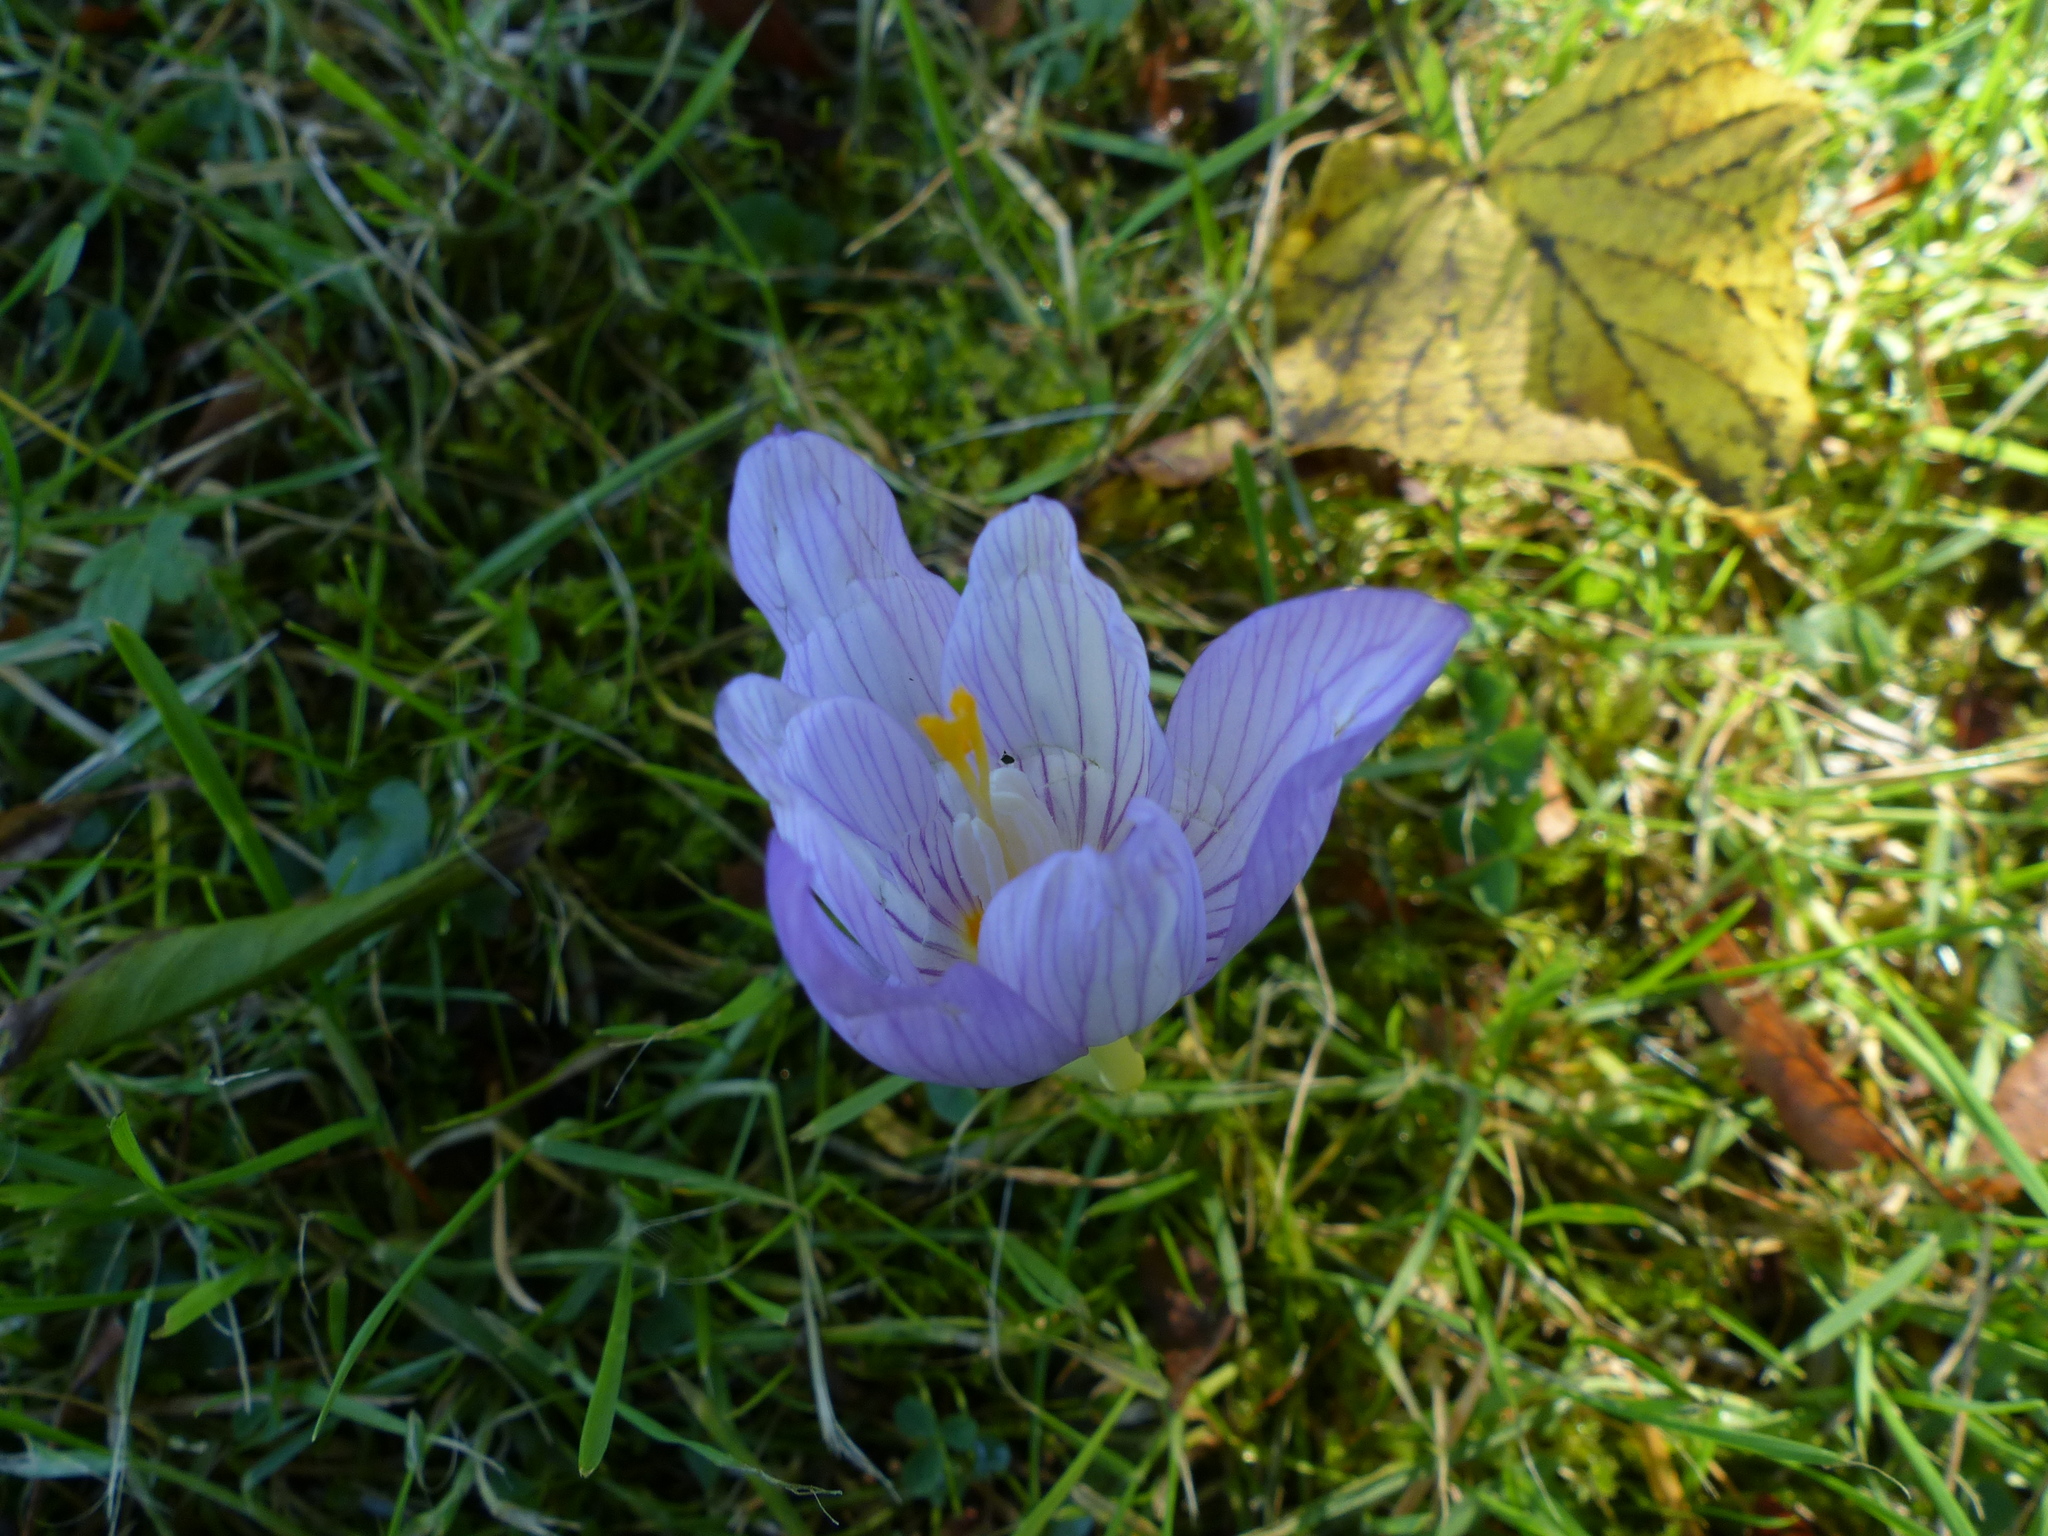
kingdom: Plantae
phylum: Tracheophyta
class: Liliopsida
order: Asparagales
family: Iridaceae
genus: Crocus
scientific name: Crocus speciosus
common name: Bieberstein's crocus
